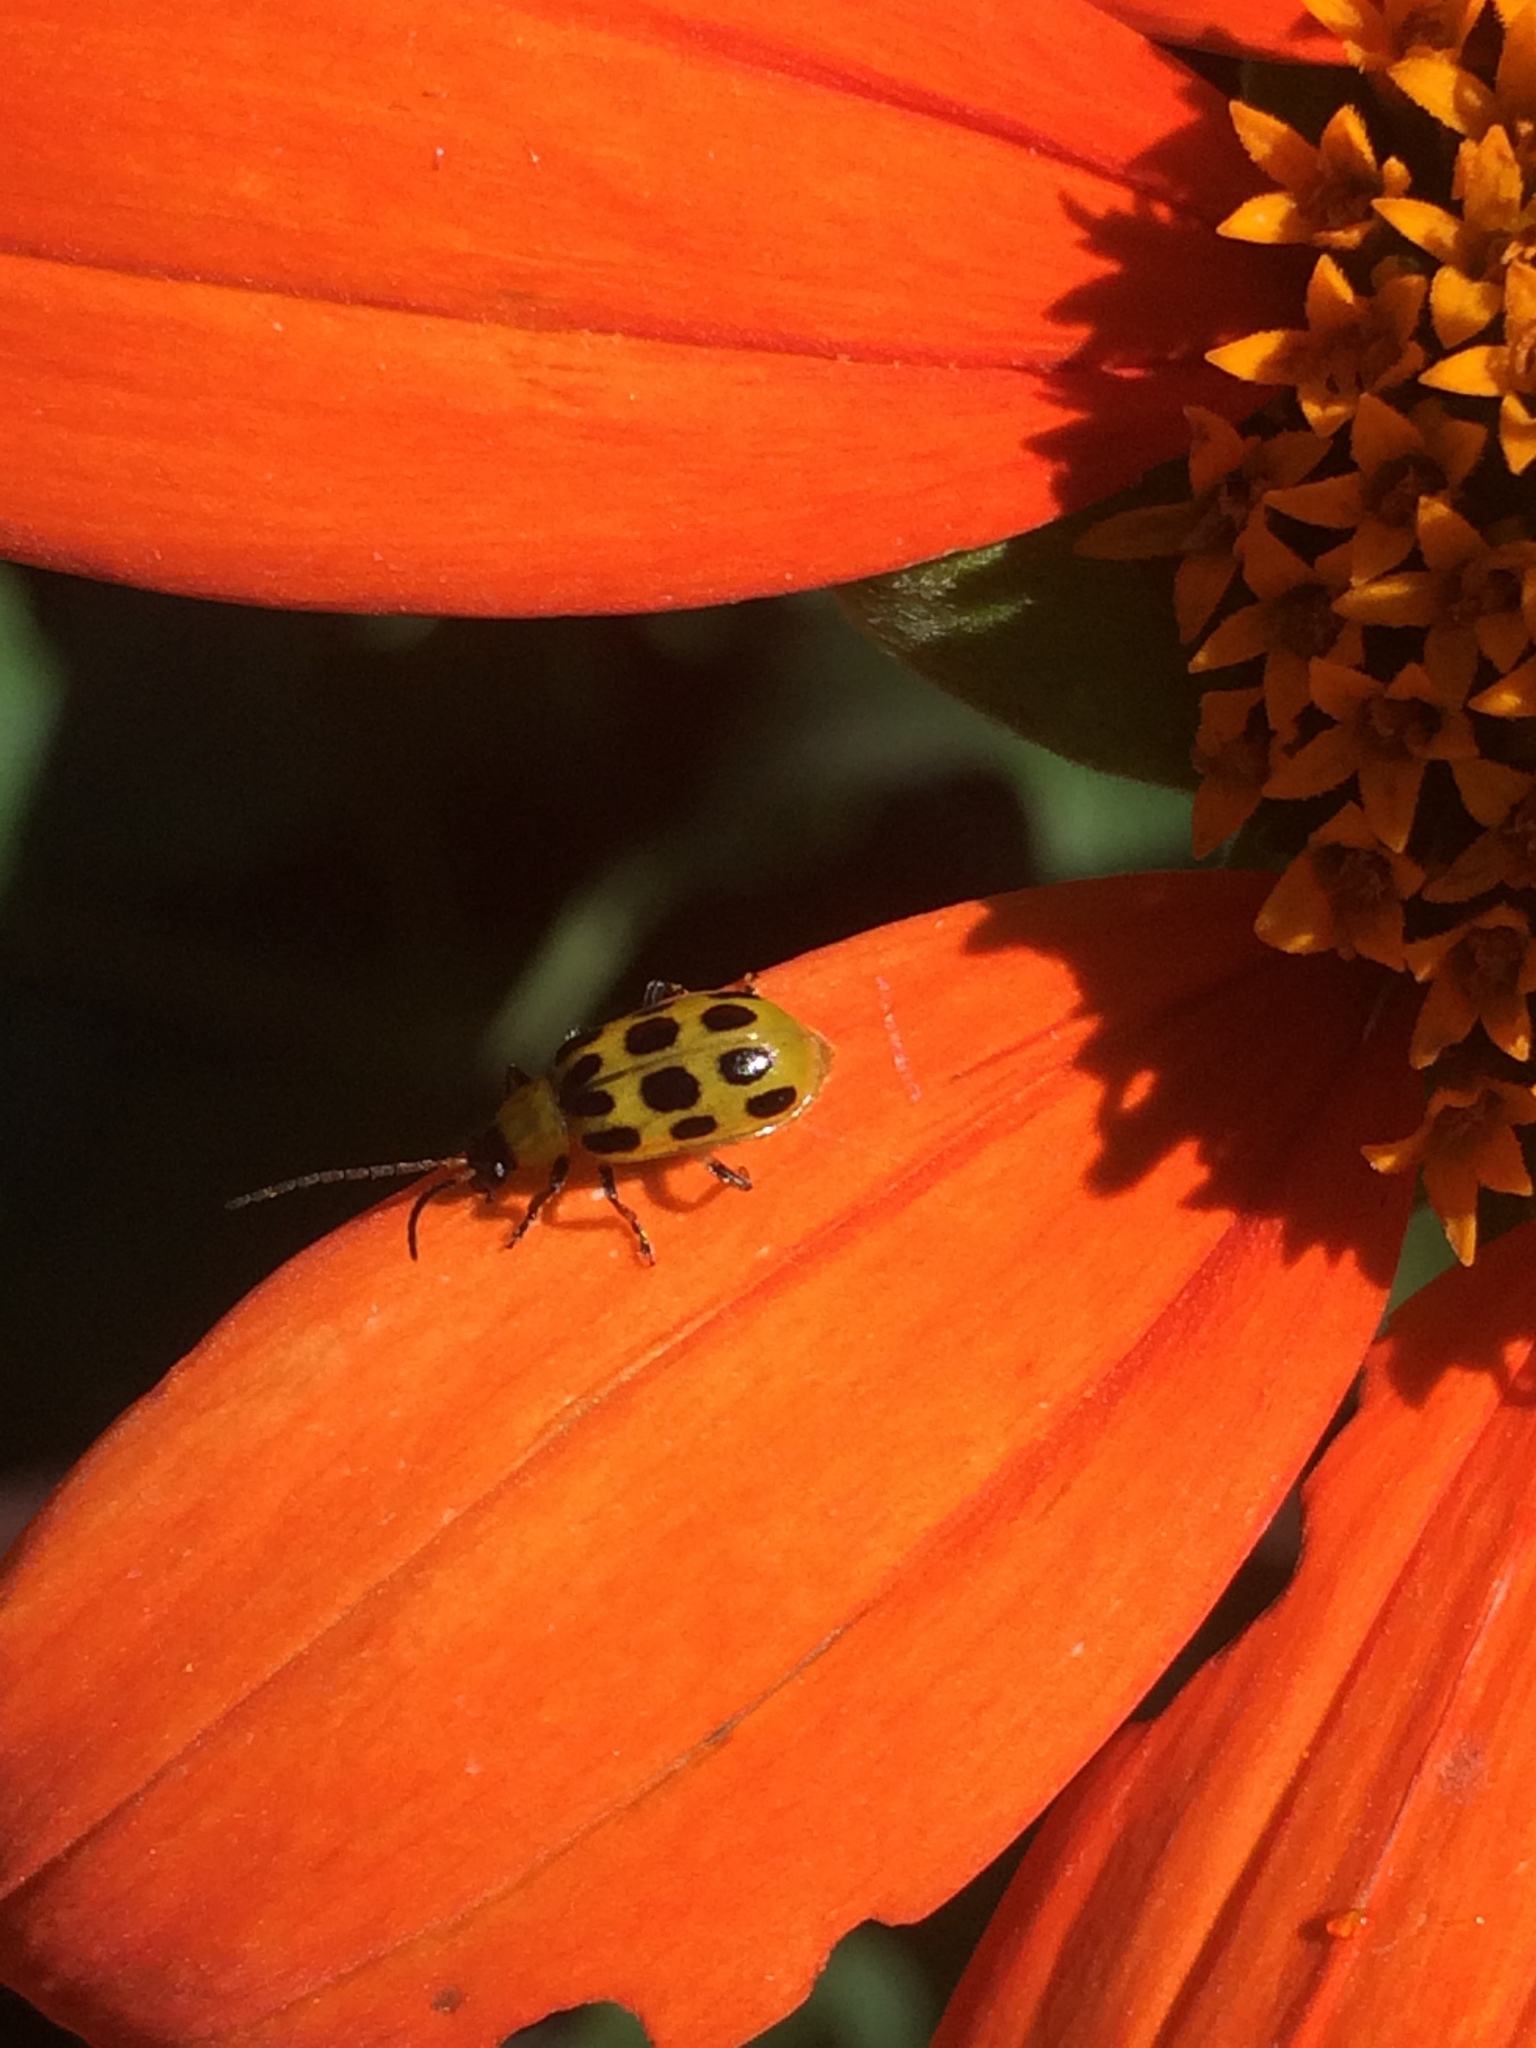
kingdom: Animalia
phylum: Arthropoda
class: Insecta
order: Coleoptera
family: Chrysomelidae
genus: Diabrotica
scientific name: Diabrotica undecimpunctata
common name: Spotted cucumber beetle
